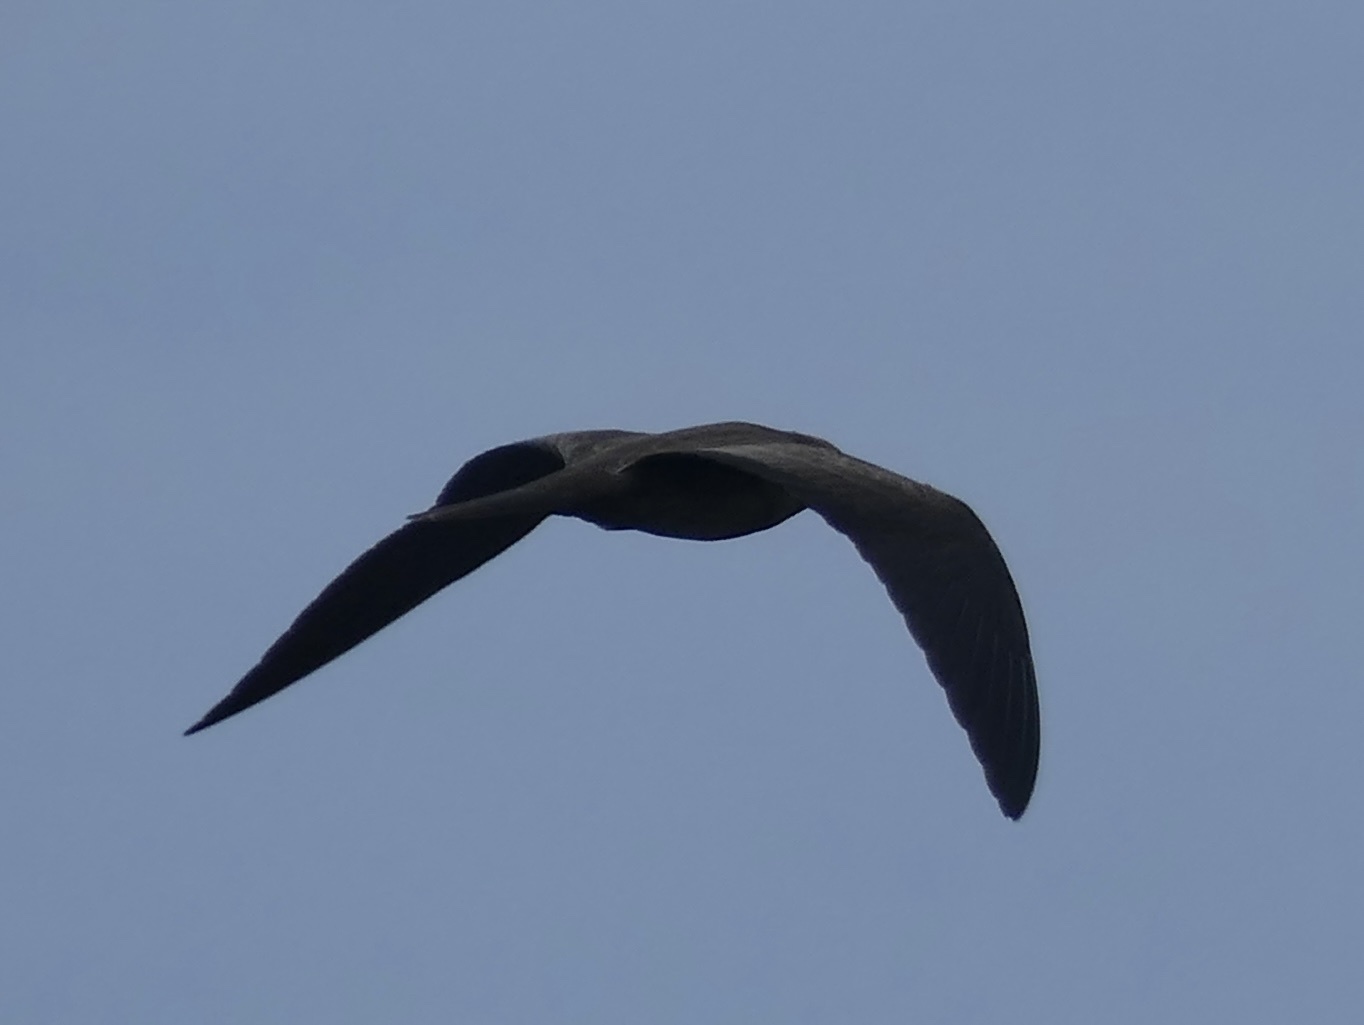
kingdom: Animalia
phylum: Chordata
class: Aves
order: Charadriiformes
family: Laridae
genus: Anous
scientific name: Anous stolidus
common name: Brown noddy
